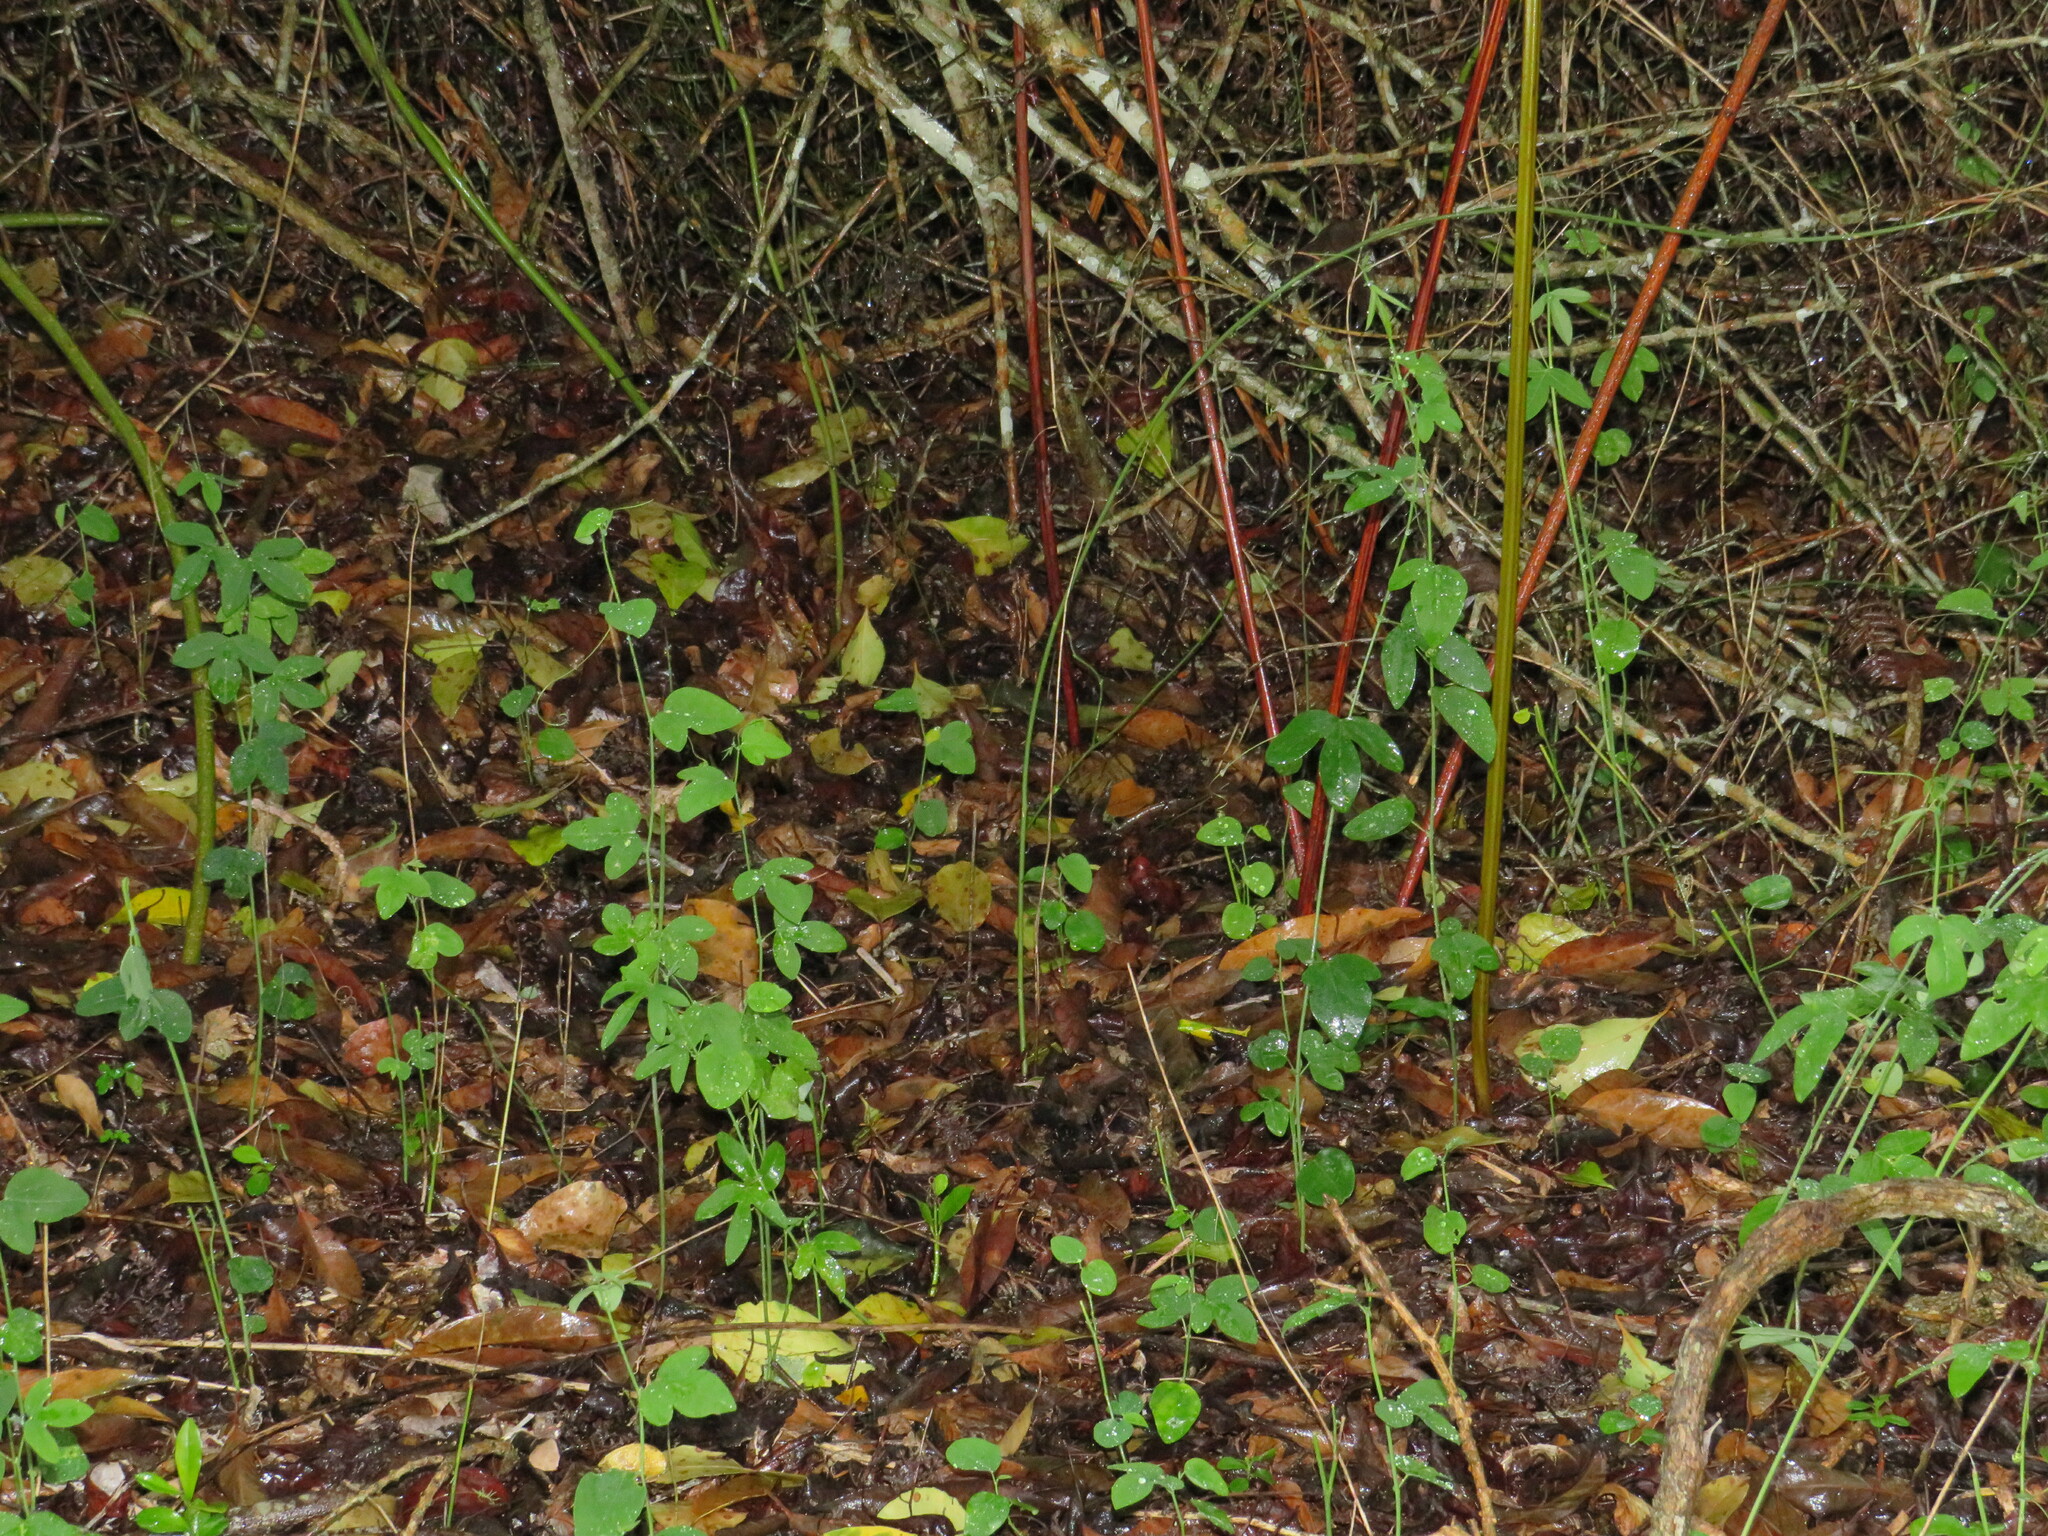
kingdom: Plantae
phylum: Tracheophyta
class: Magnoliopsida
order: Malpighiales
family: Passifloraceae
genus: Passiflora
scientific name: Passiflora caerulea
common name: Blue passionflower
